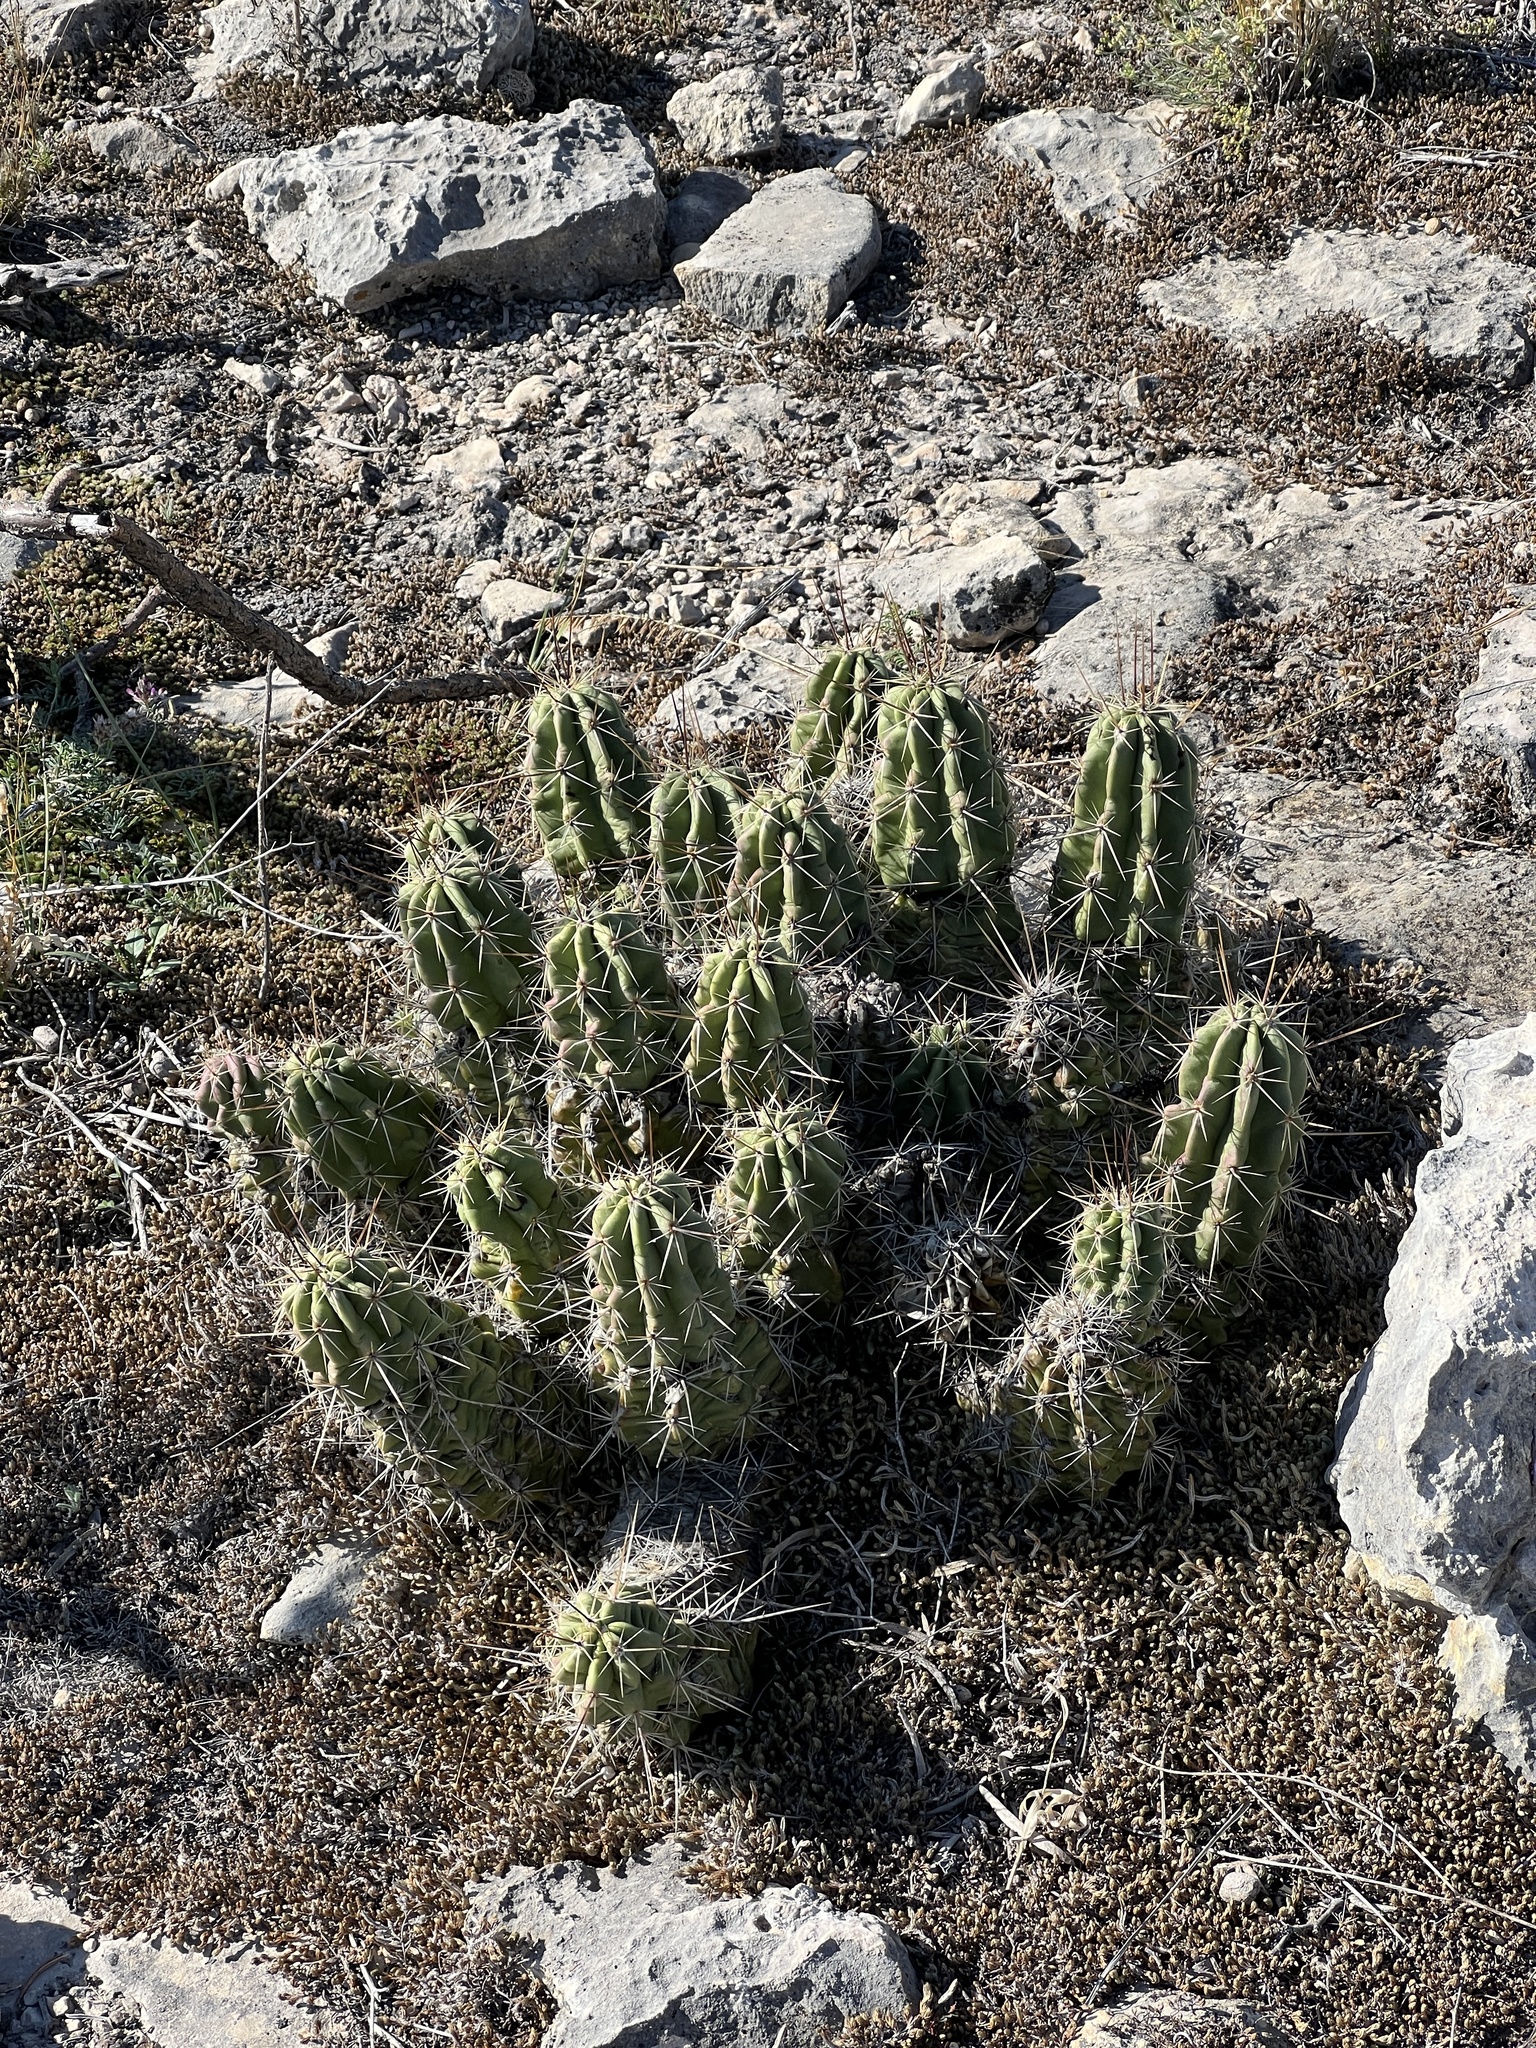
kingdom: Plantae
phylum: Tracheophyta
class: Magnoliopsida
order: Caryophyllales
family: Cactaceae
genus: Echinocereus
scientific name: Echinocereus enneacanthus
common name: Pitaya
